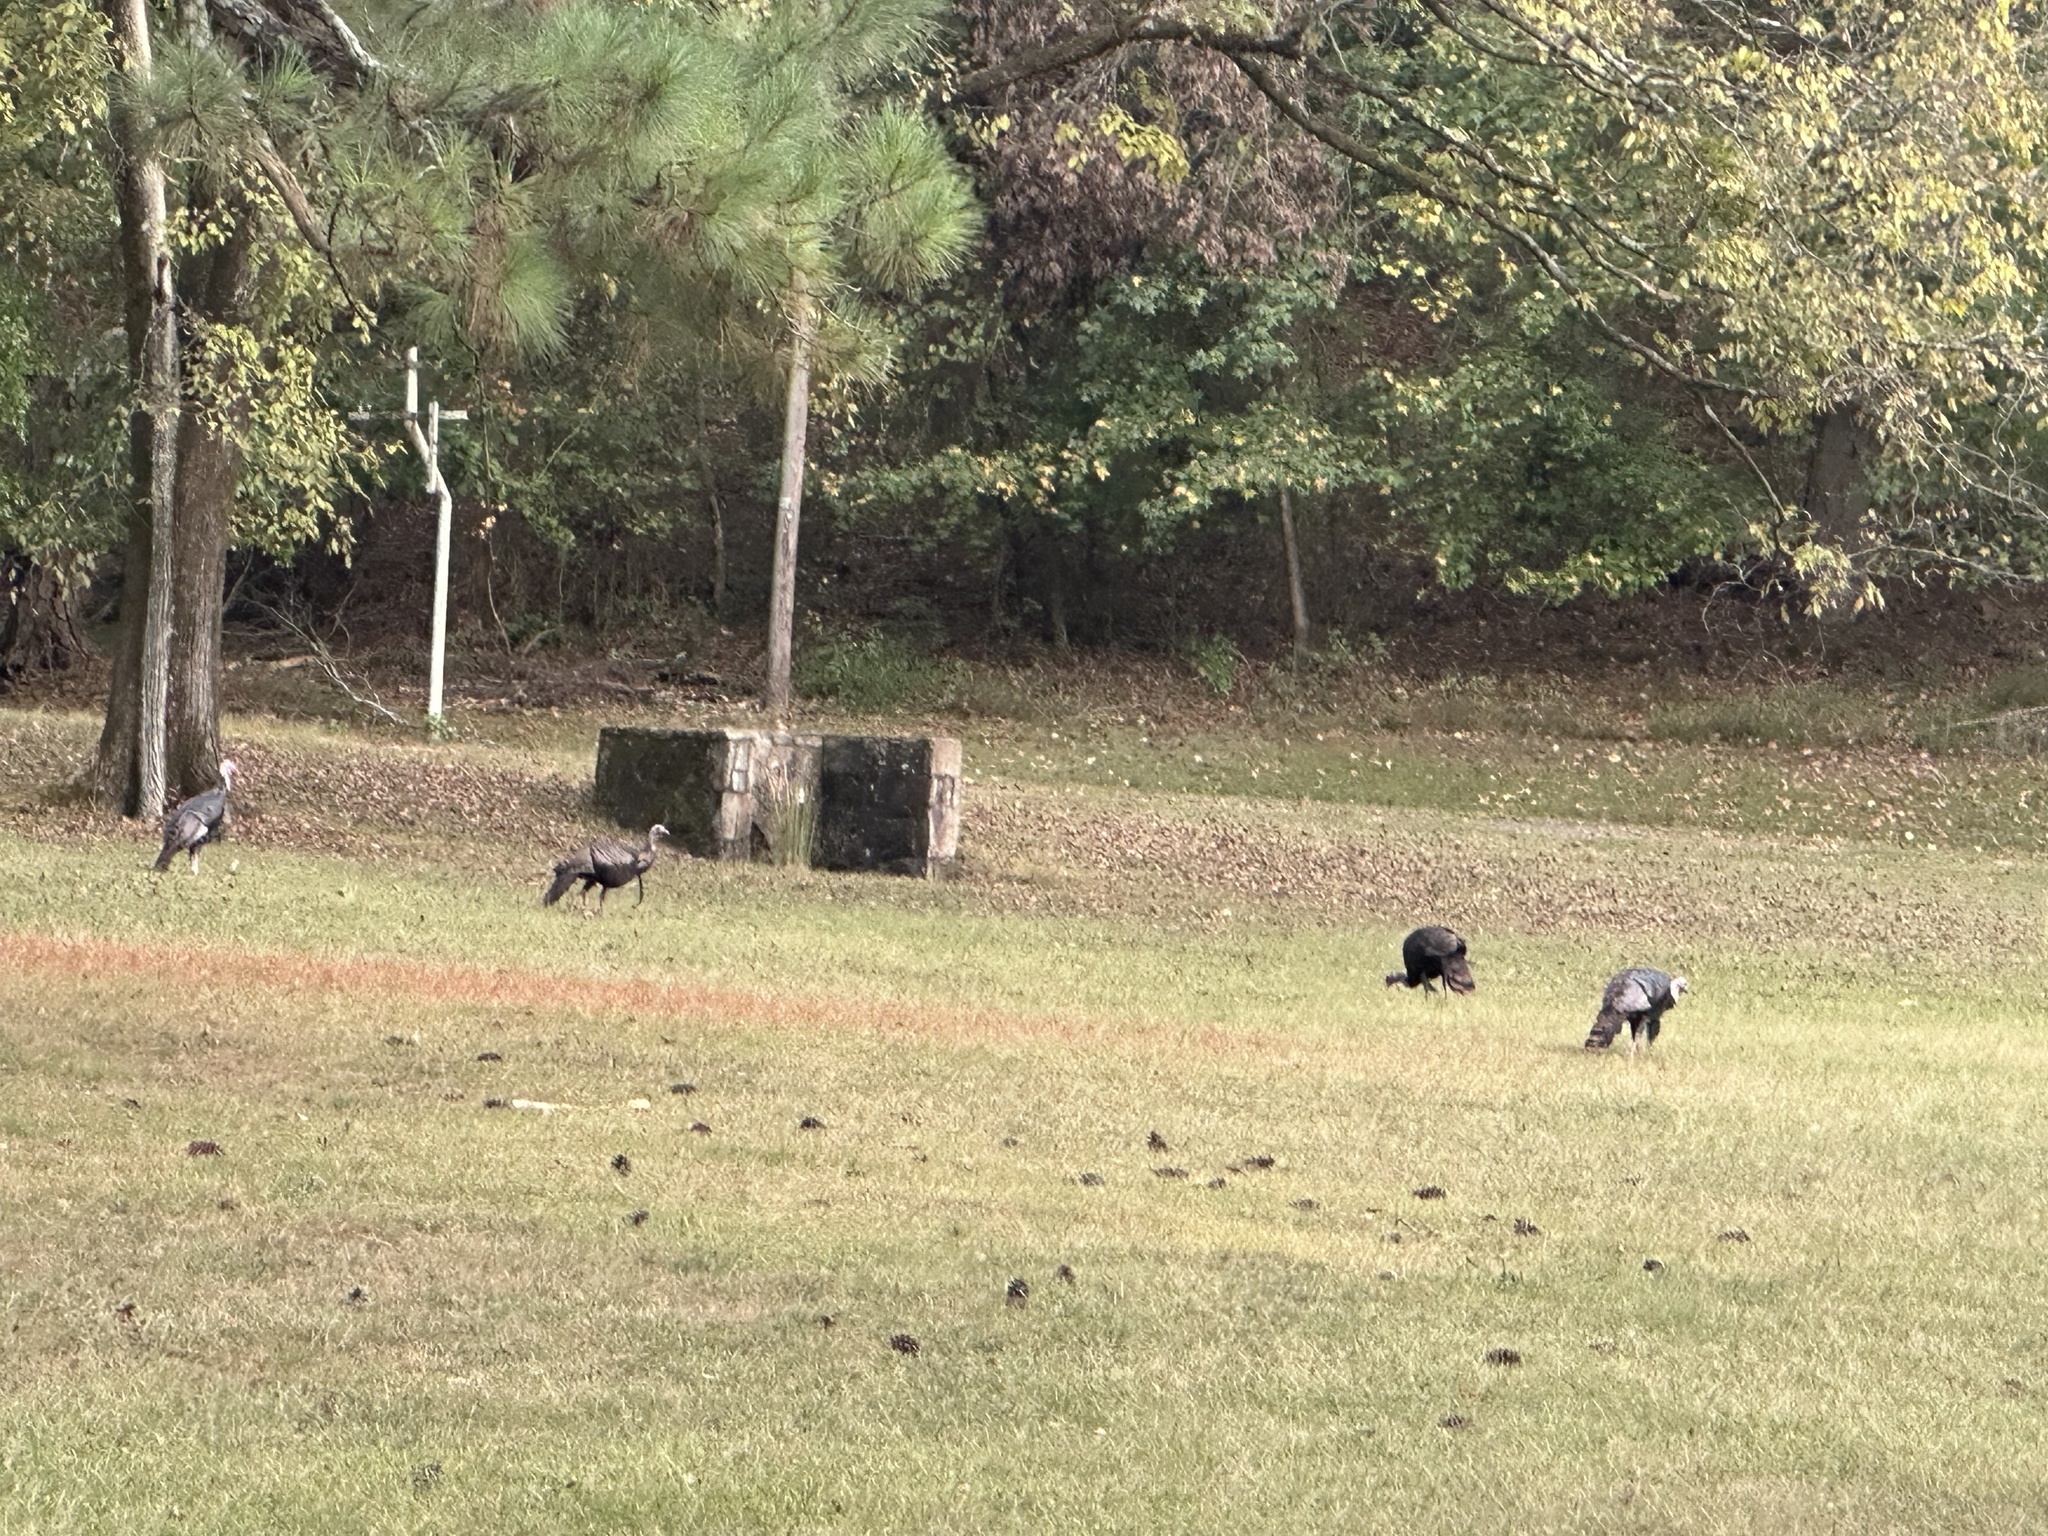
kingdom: Animalia
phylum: Chordata
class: Aves
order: Galliformes
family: Phasianidae
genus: Meleagris
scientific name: Meleagris gallopavo
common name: Wild turkey
